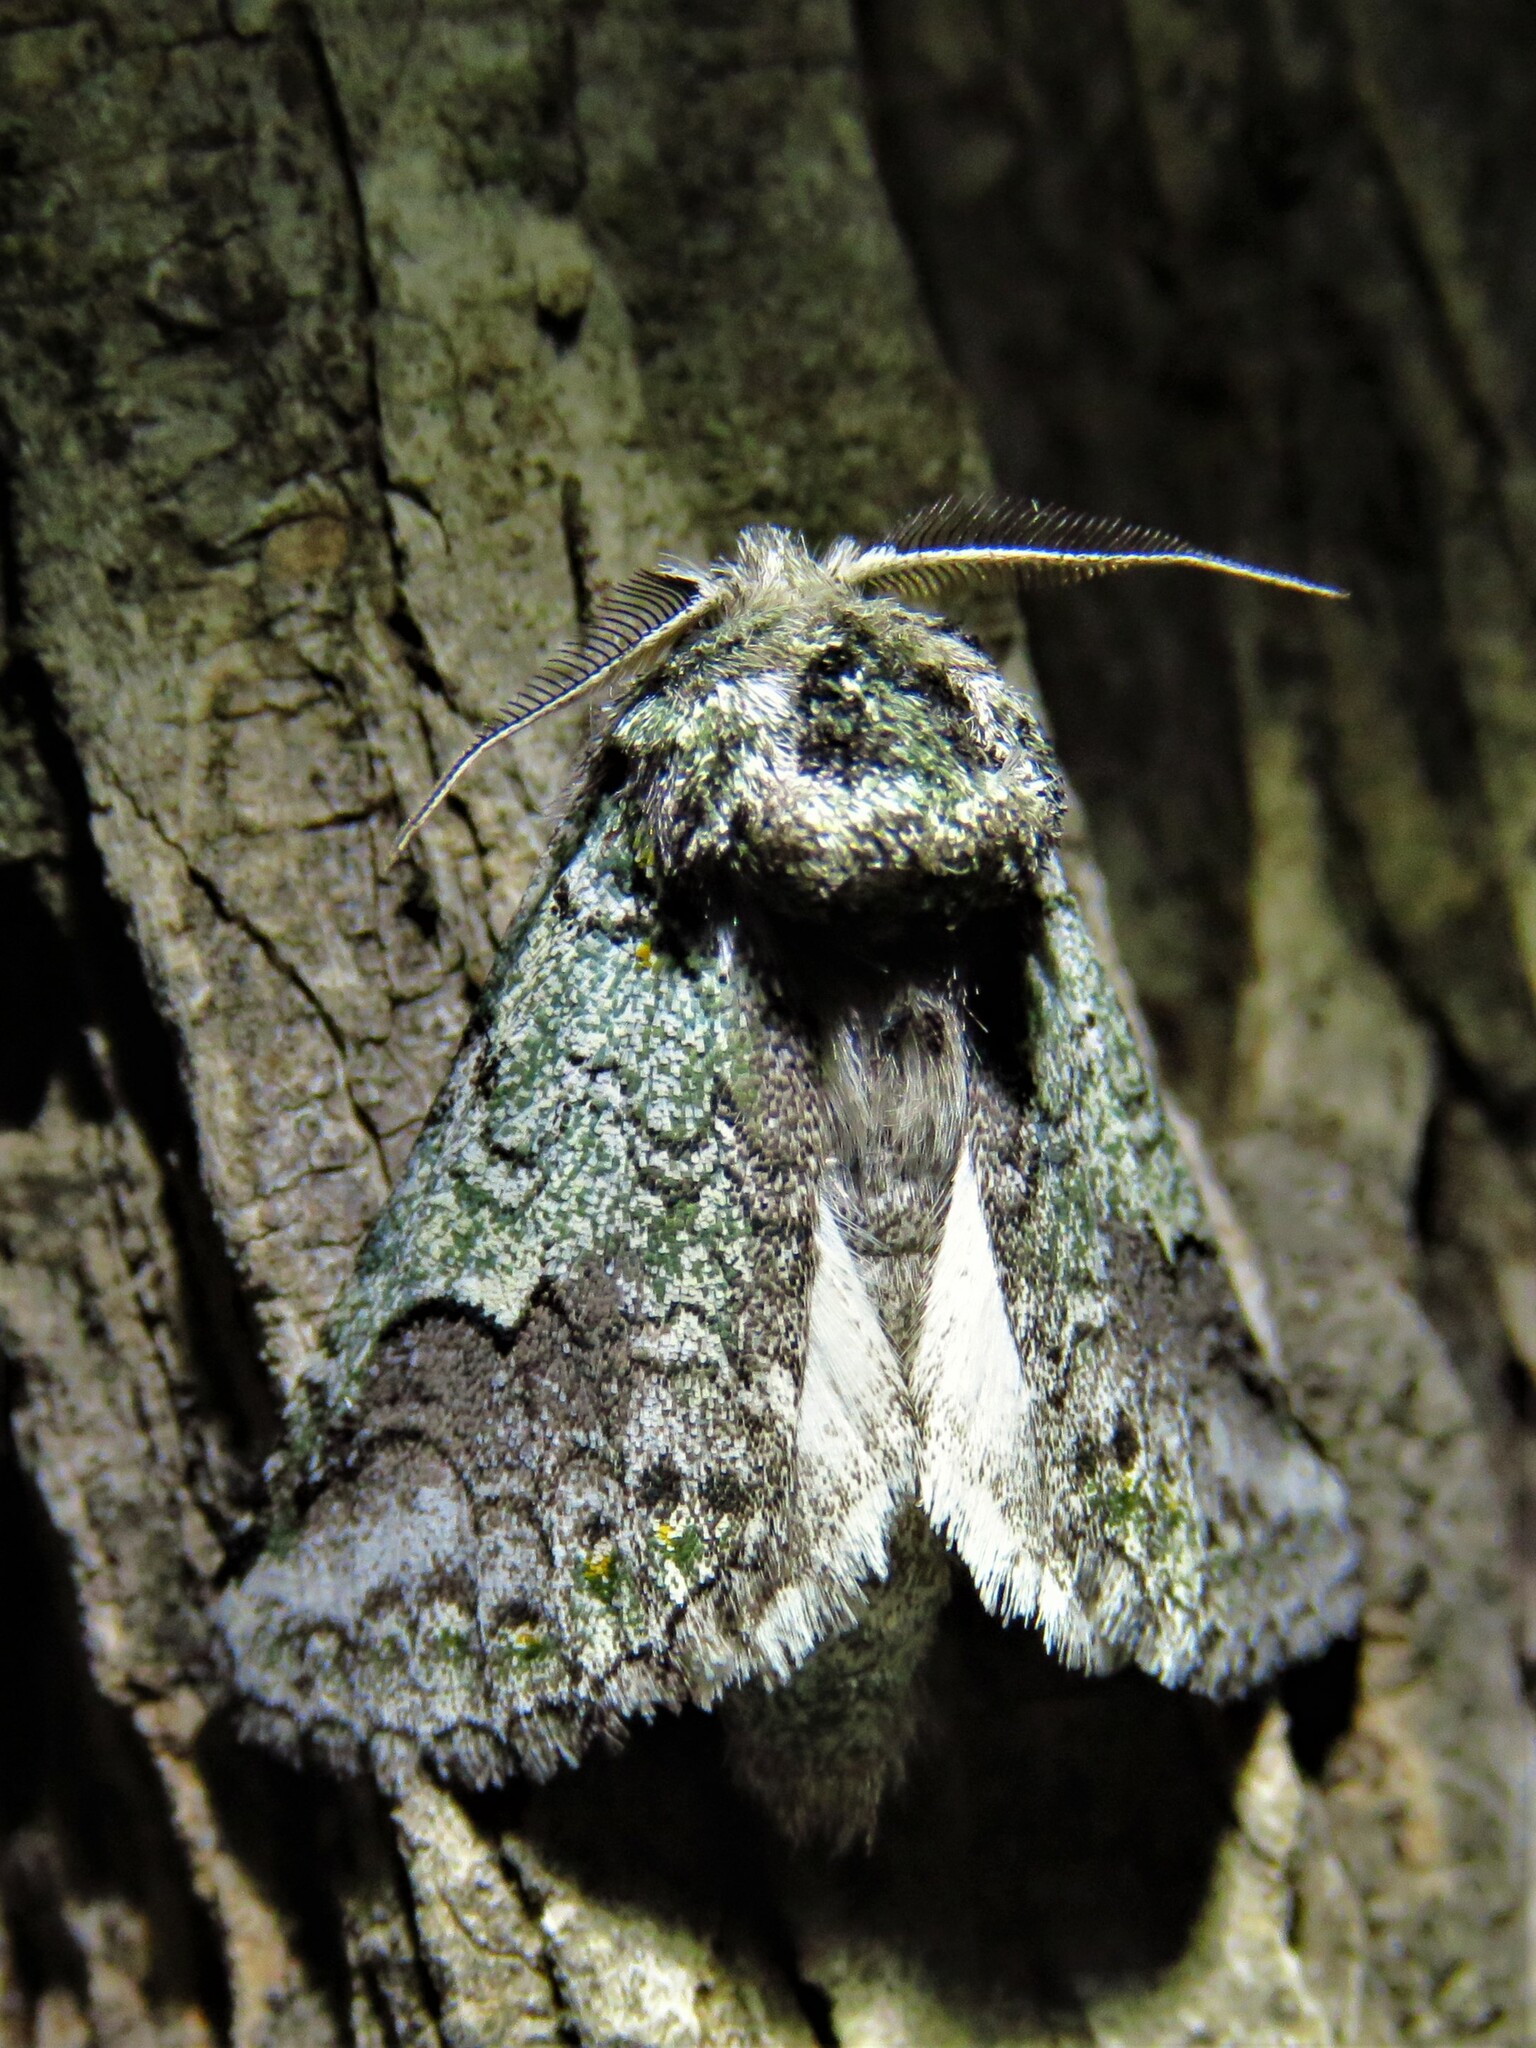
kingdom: Animalia
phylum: Arthropoda
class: Insecta
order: Lepidoptera
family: Notodontidae
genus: Litodonta
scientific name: Litodonta hydromeli
